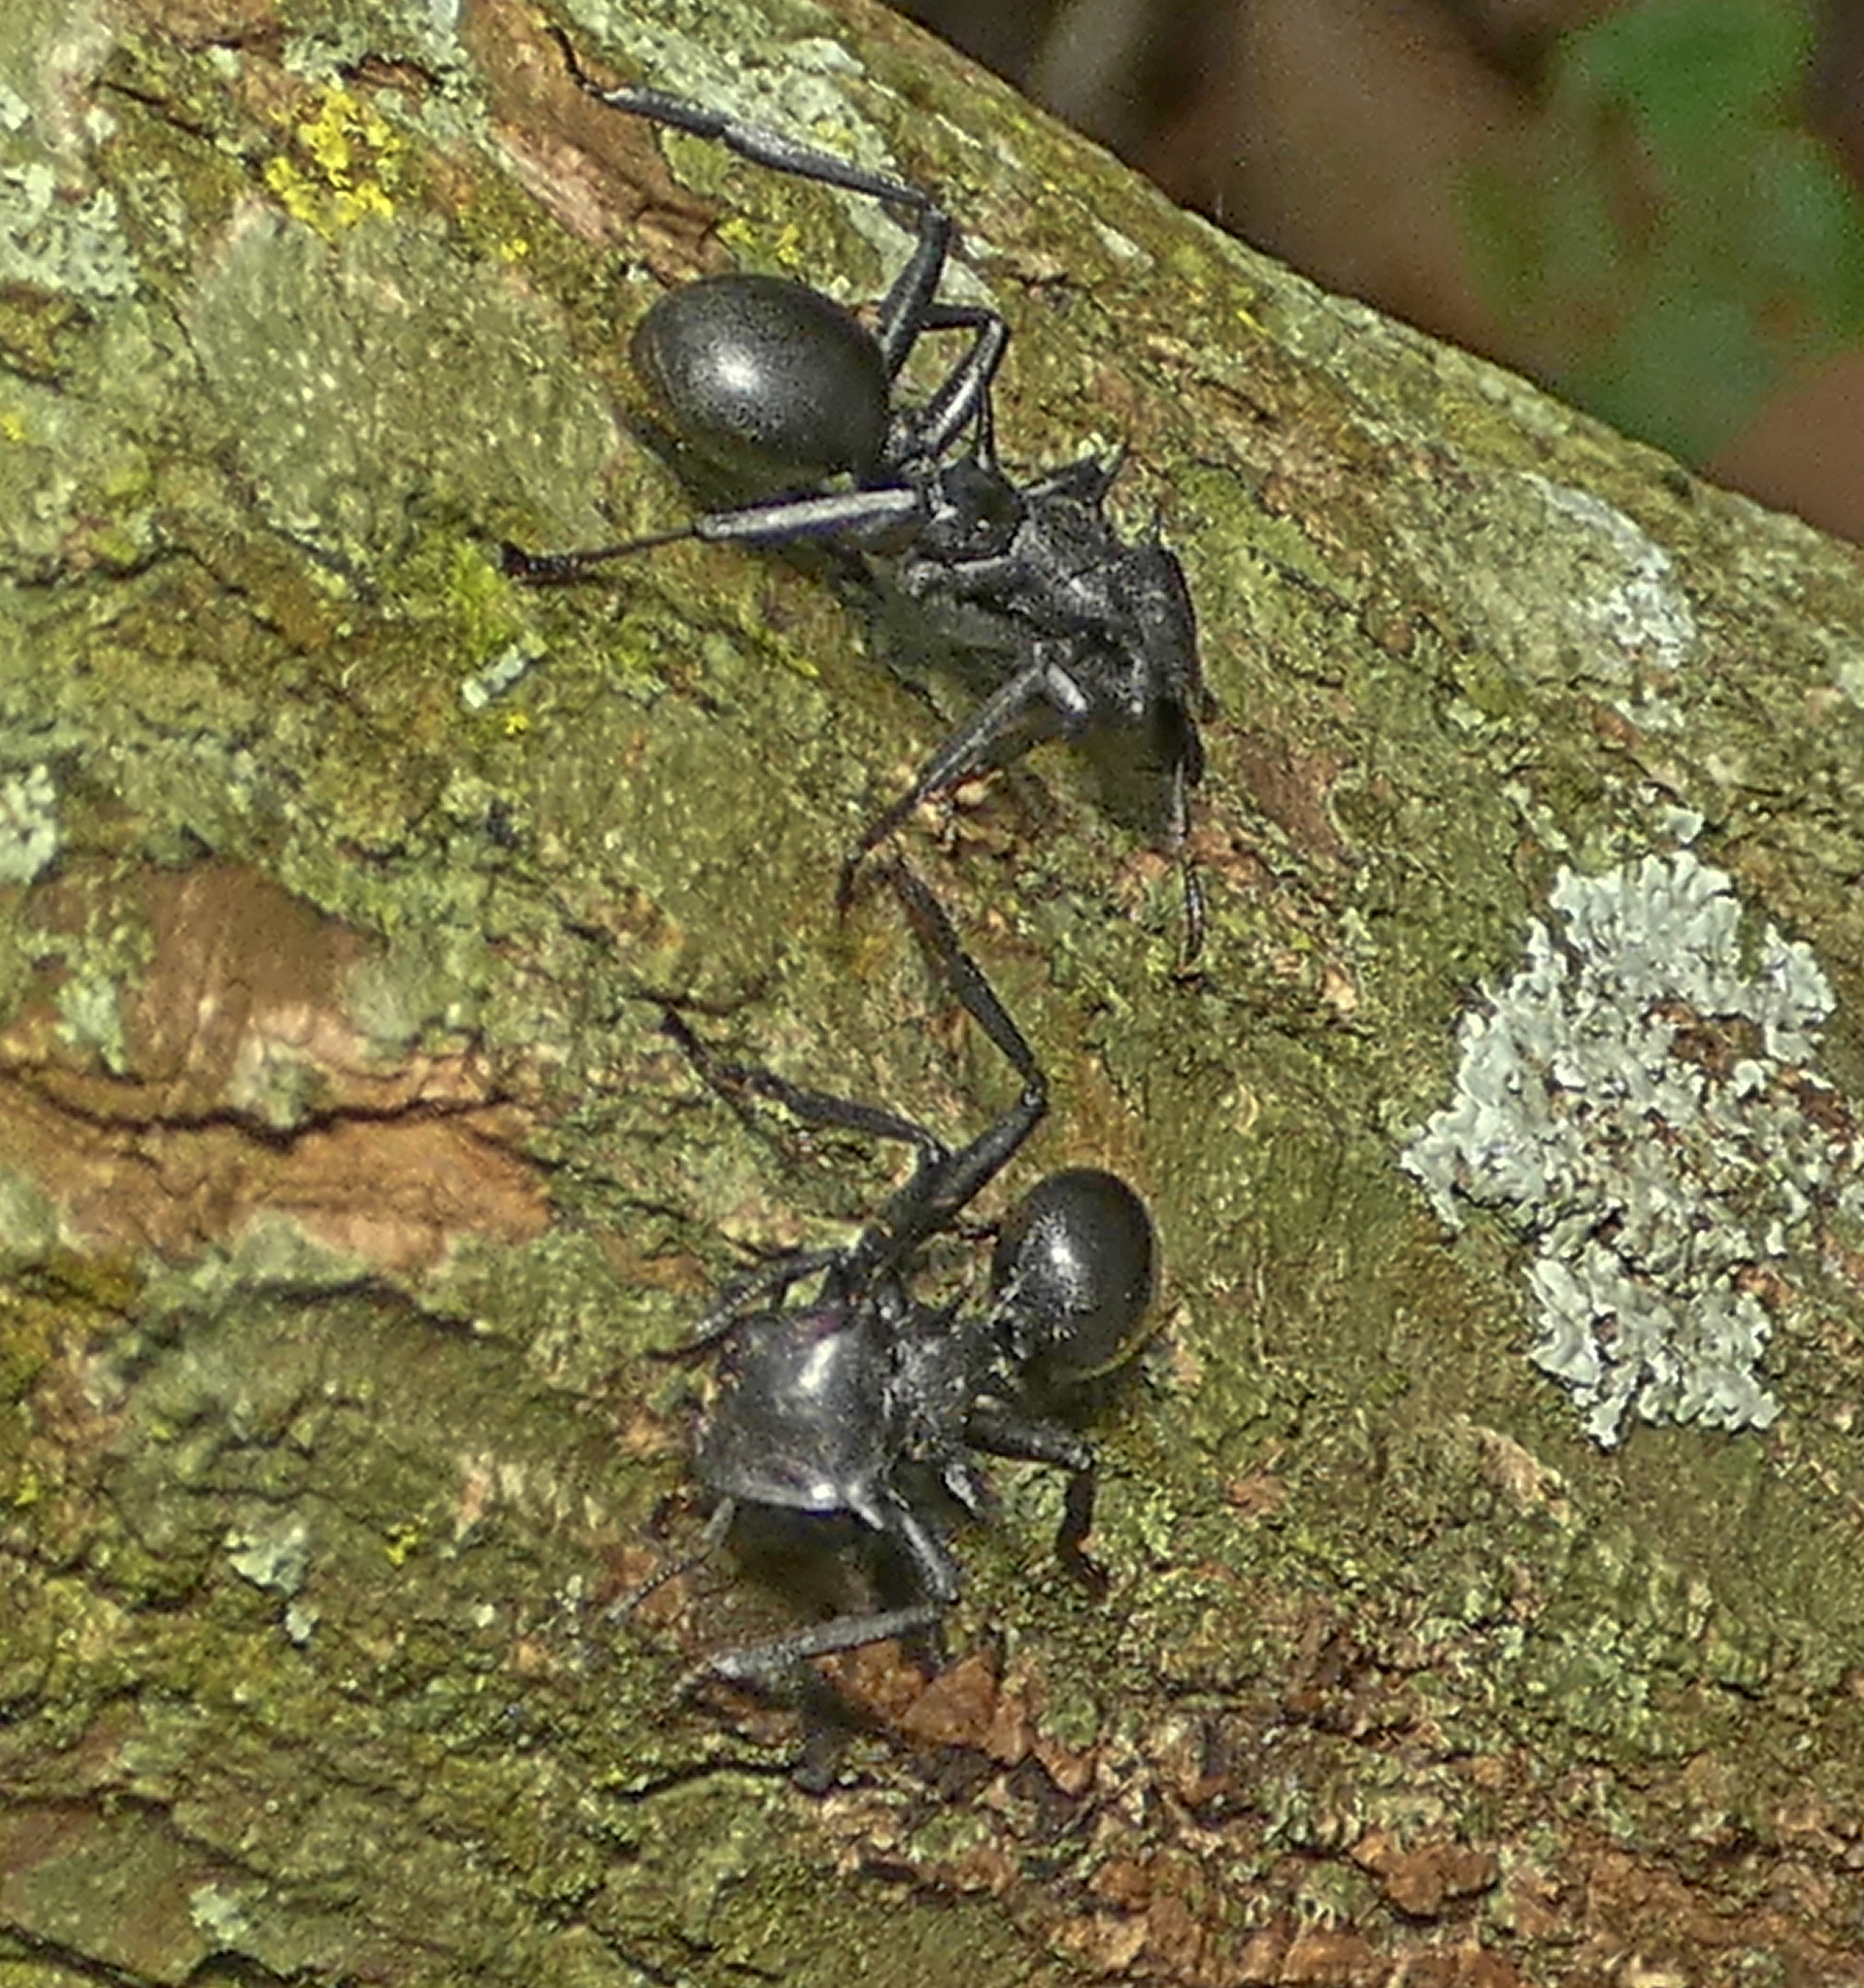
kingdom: Animalia
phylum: Arthropoda
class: Insecta
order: Hymenoptera
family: Formicidae
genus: Cephalotes
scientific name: Cephalotes atratus
